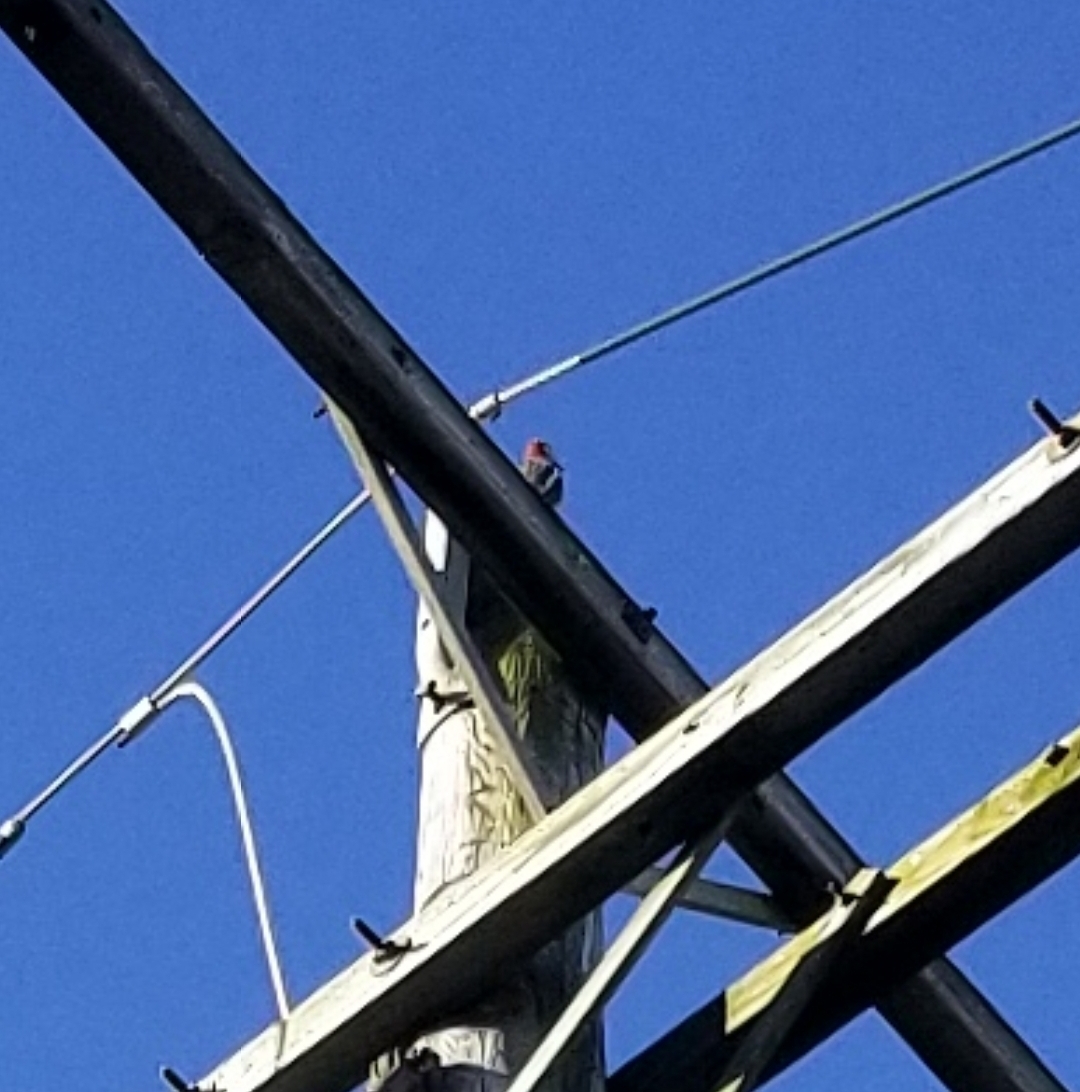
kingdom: Animalia
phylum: Chordata
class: Aves
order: Piciformes
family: Picidae
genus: Sphyrapicus
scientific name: Sphyrapicus varius
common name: Yellow-bellied sapsucker
